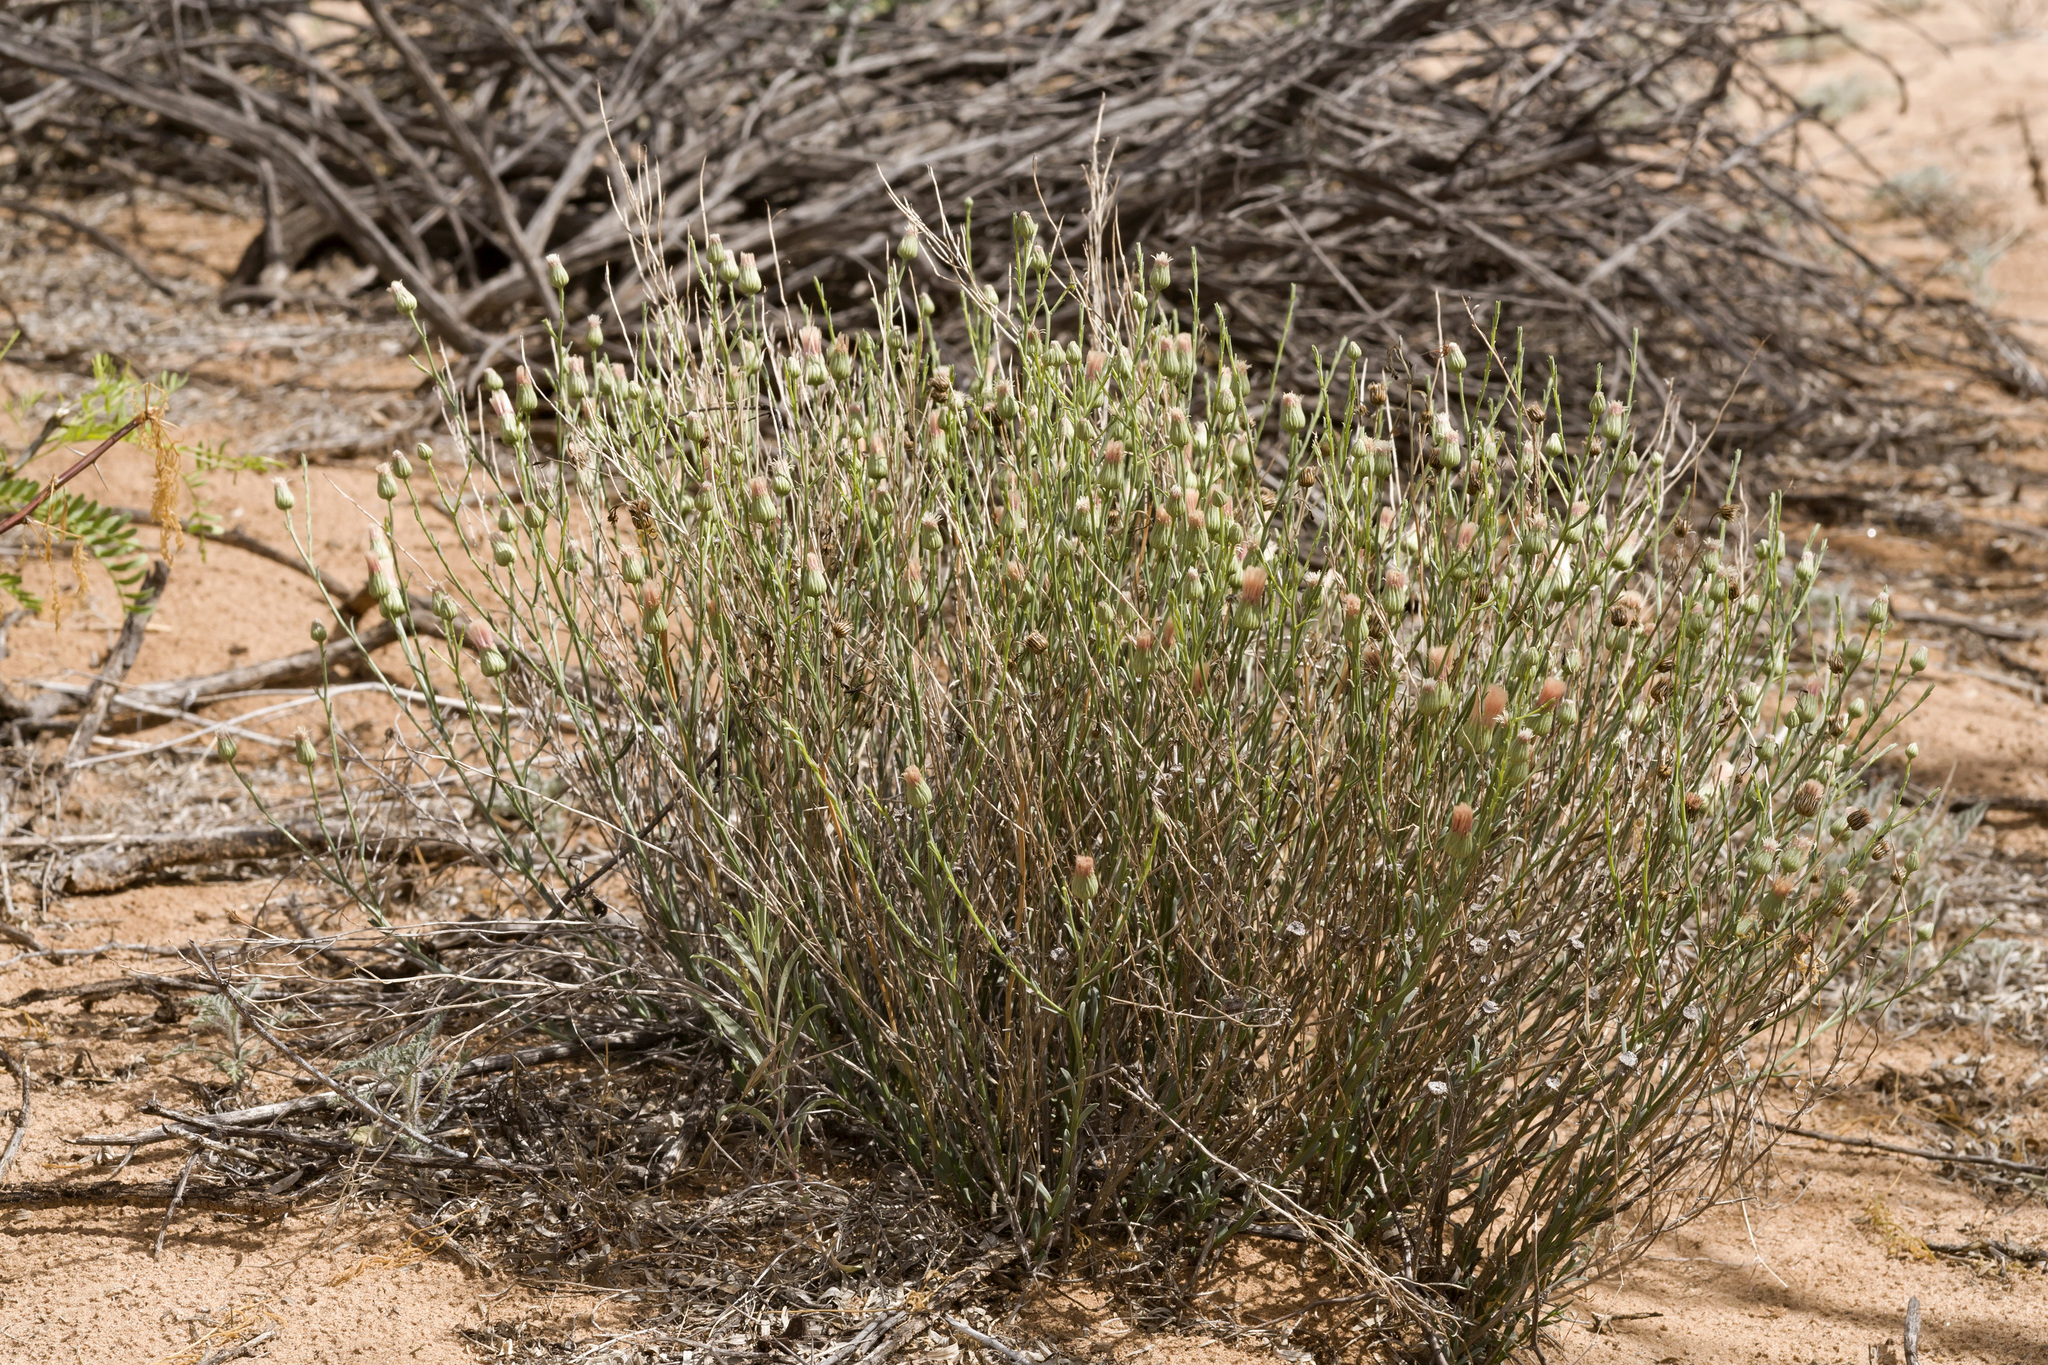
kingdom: Plantae
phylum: Tracheophyta
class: Magnoliopsida
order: Asterales
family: Asteraceae
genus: Baccharis
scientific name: Baccharis wrightii
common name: Wright's baccharis
